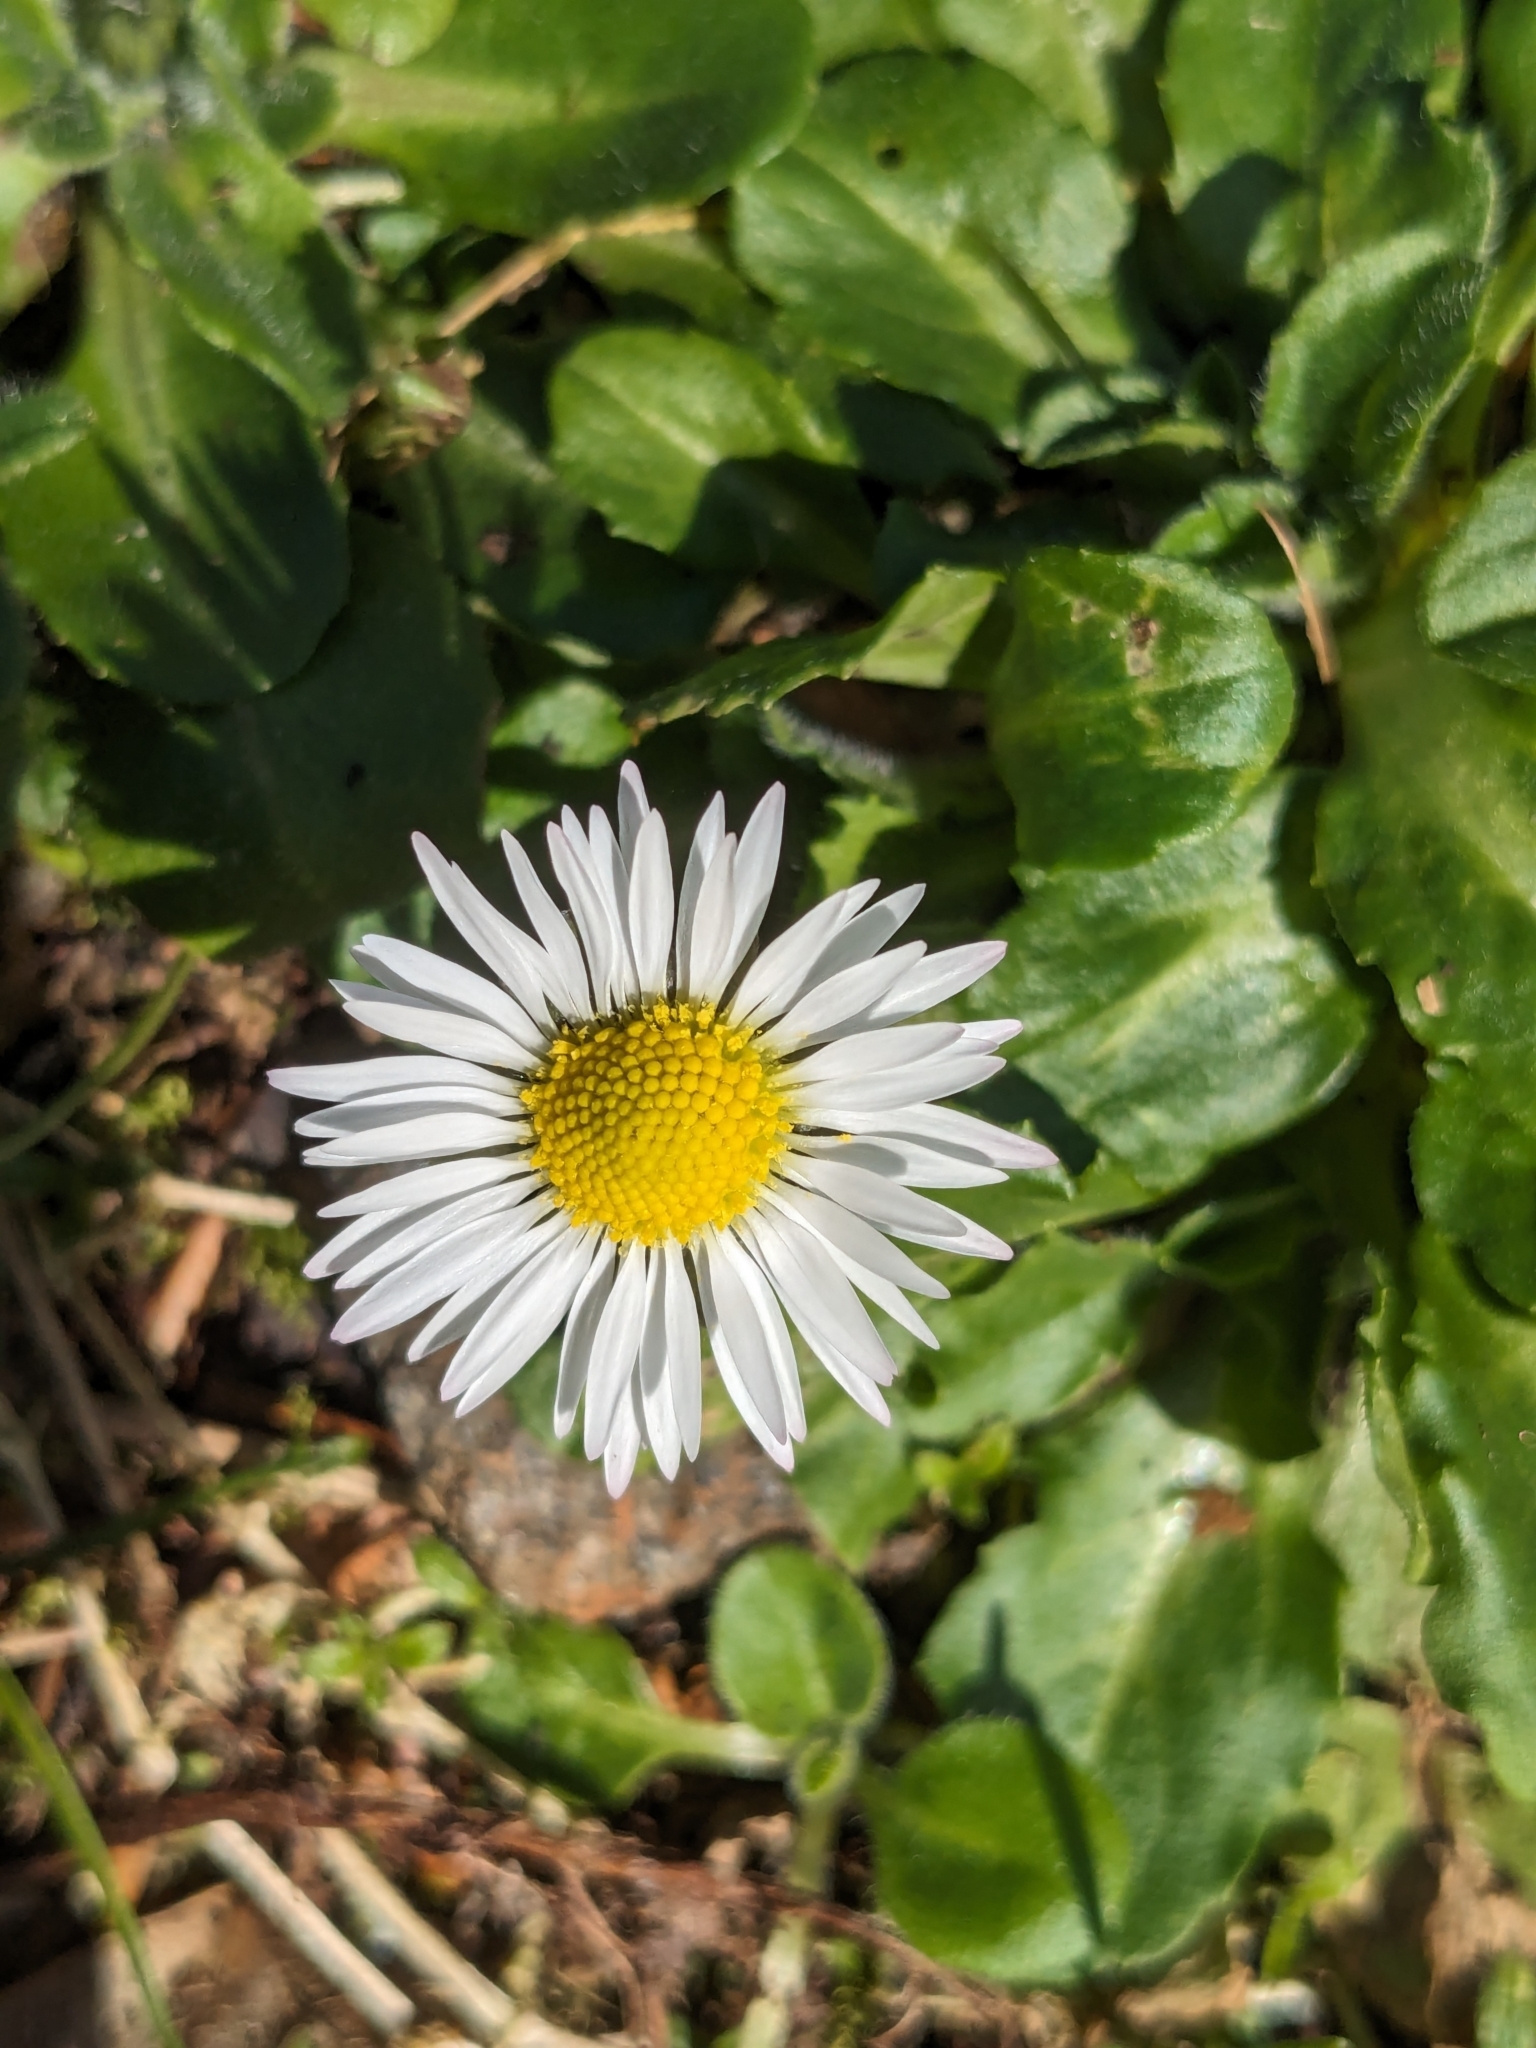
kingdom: Plantae
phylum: Tracheophyta
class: Magnoliopsida
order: Asterales
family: Asteraceae
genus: Bellis
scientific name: Bellis perennis
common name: Lawndaisy
